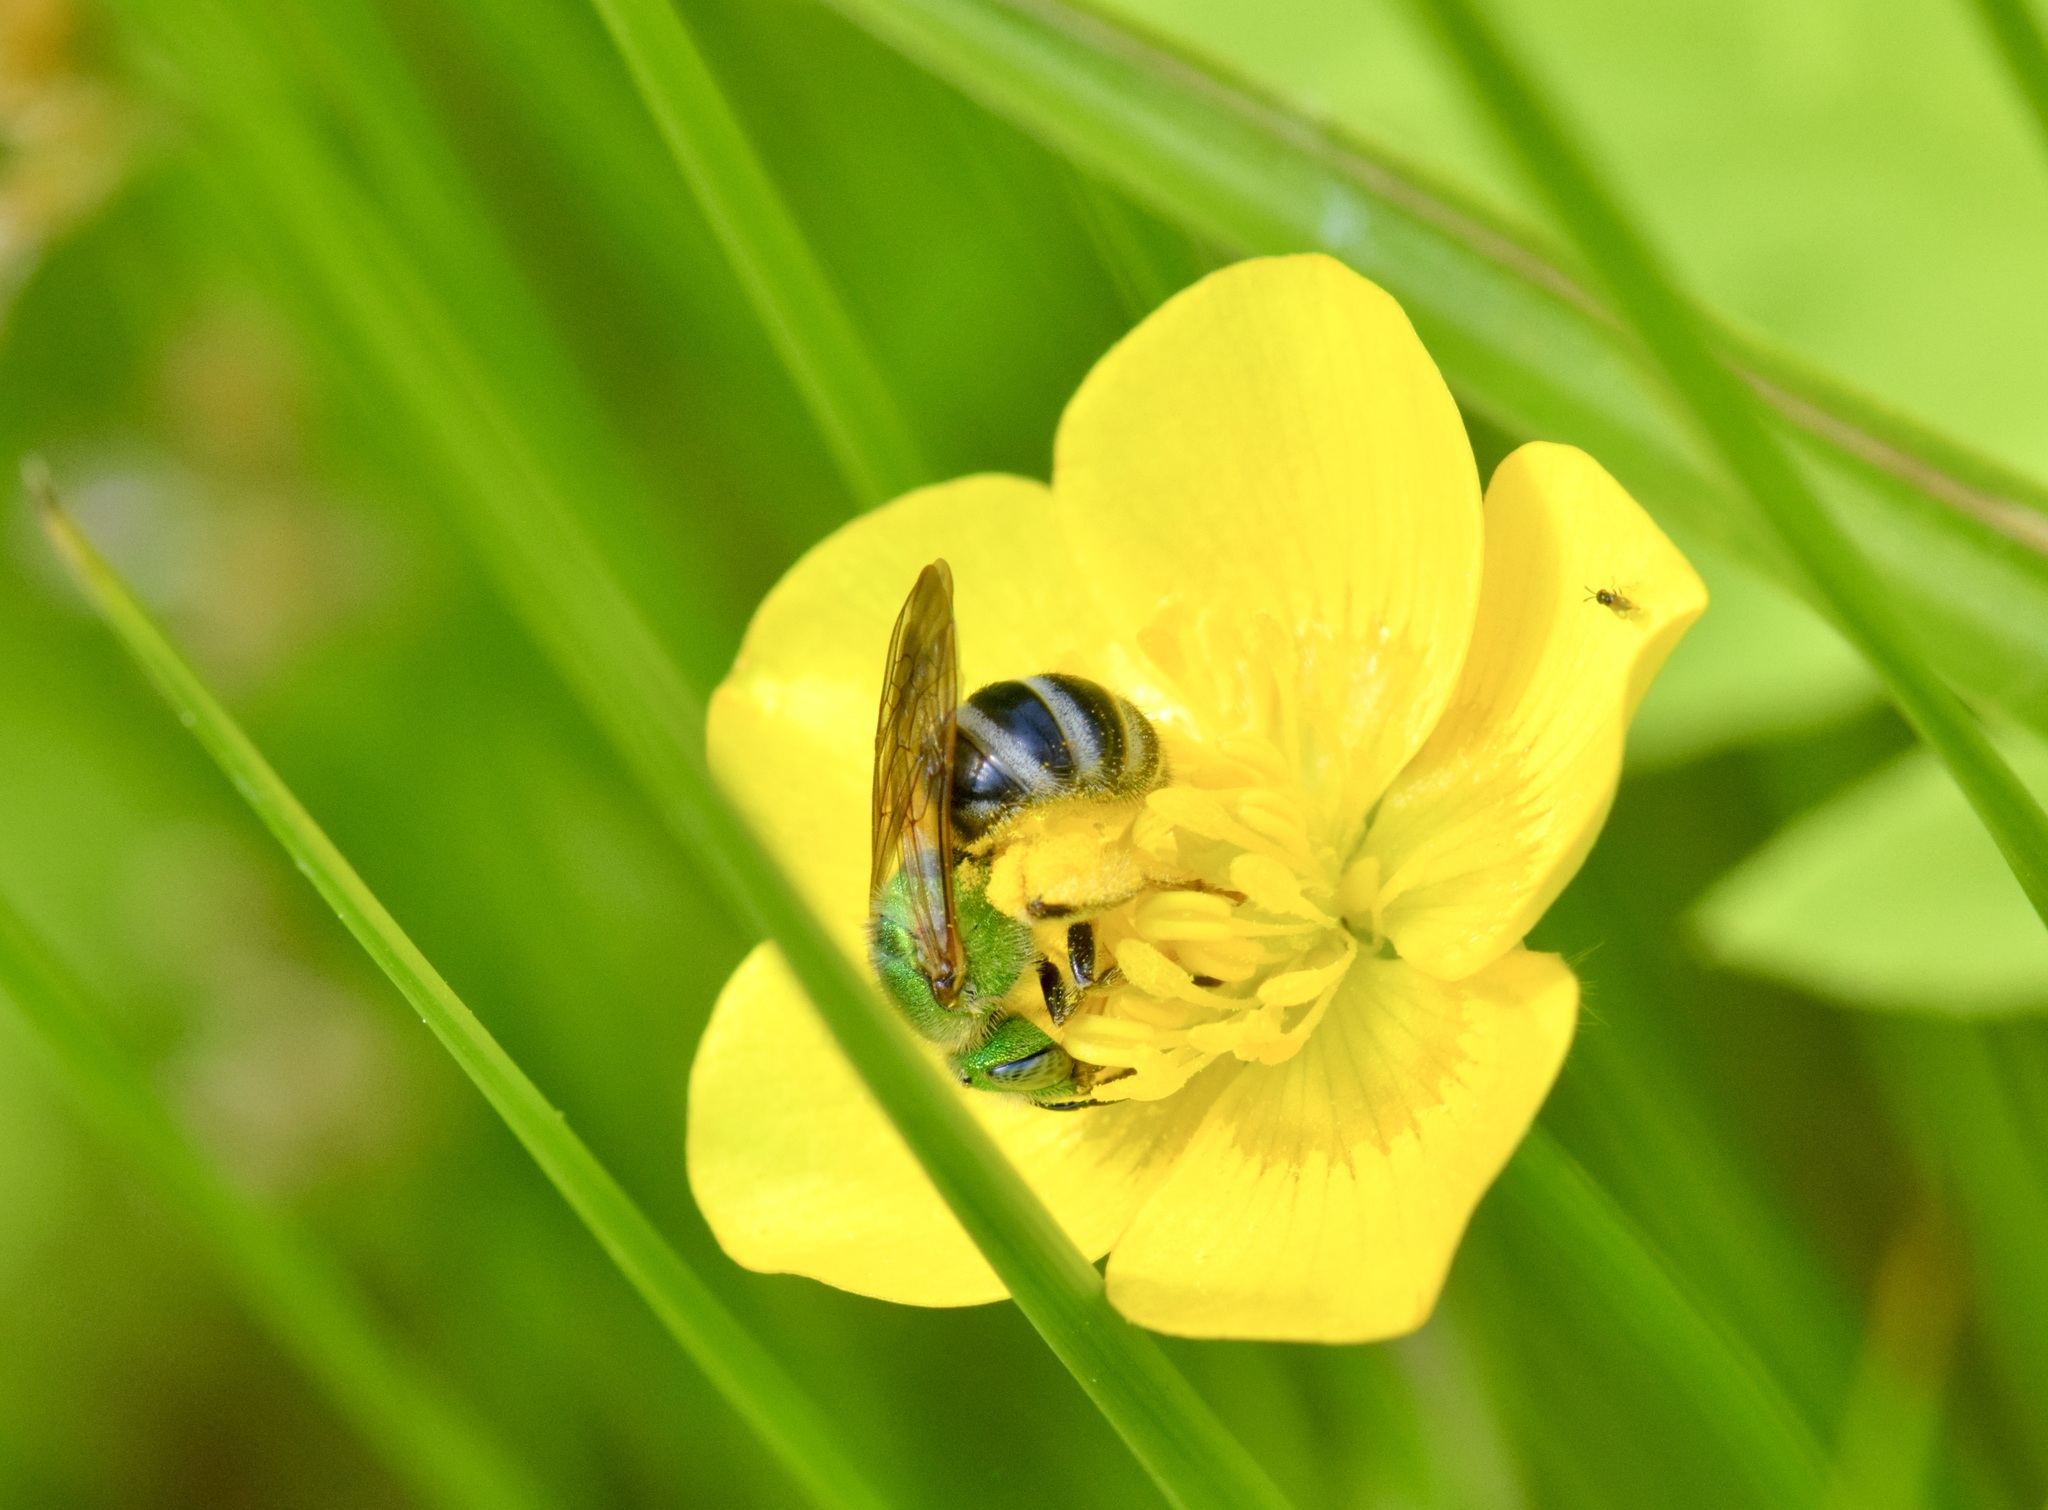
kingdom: Animalia
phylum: Arthropoda
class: Insecta
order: Hymenoptera
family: Halictidae
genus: Agapostemon
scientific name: Agapostemon virescens
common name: Bicolored striped sweat bee
